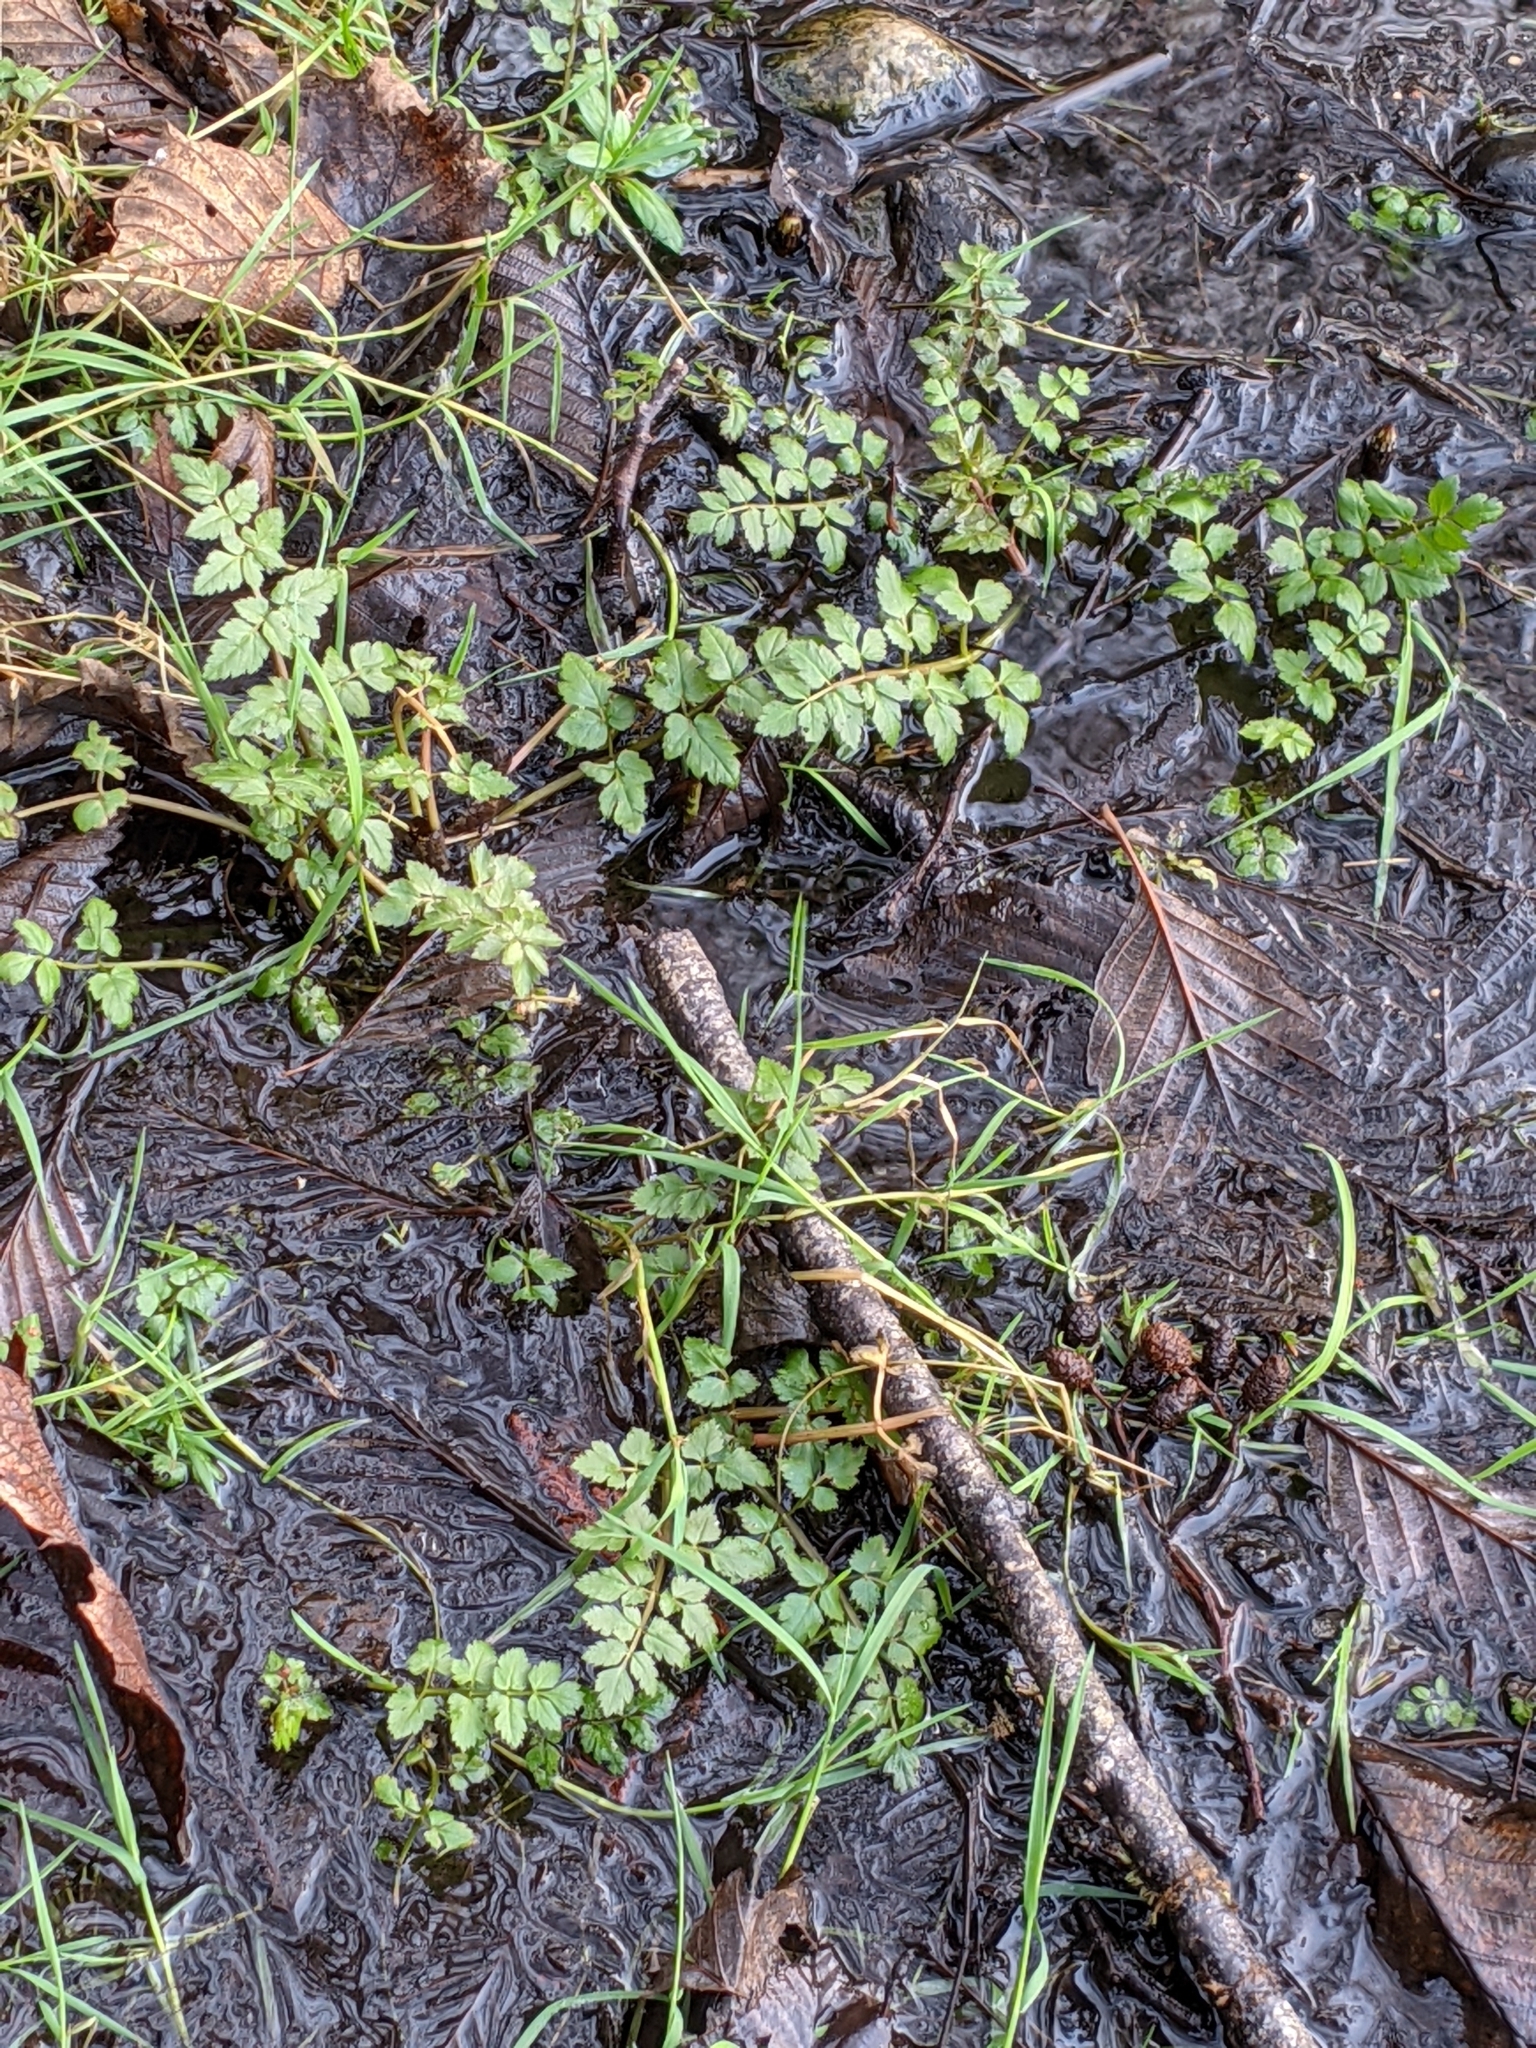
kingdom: Plantae
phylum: Tracheophyta
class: Magnoliopsida
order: Apiales
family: Apiaceae
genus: Oenanthe
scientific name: Oenanthe sarmentosa
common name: American water-parsley
